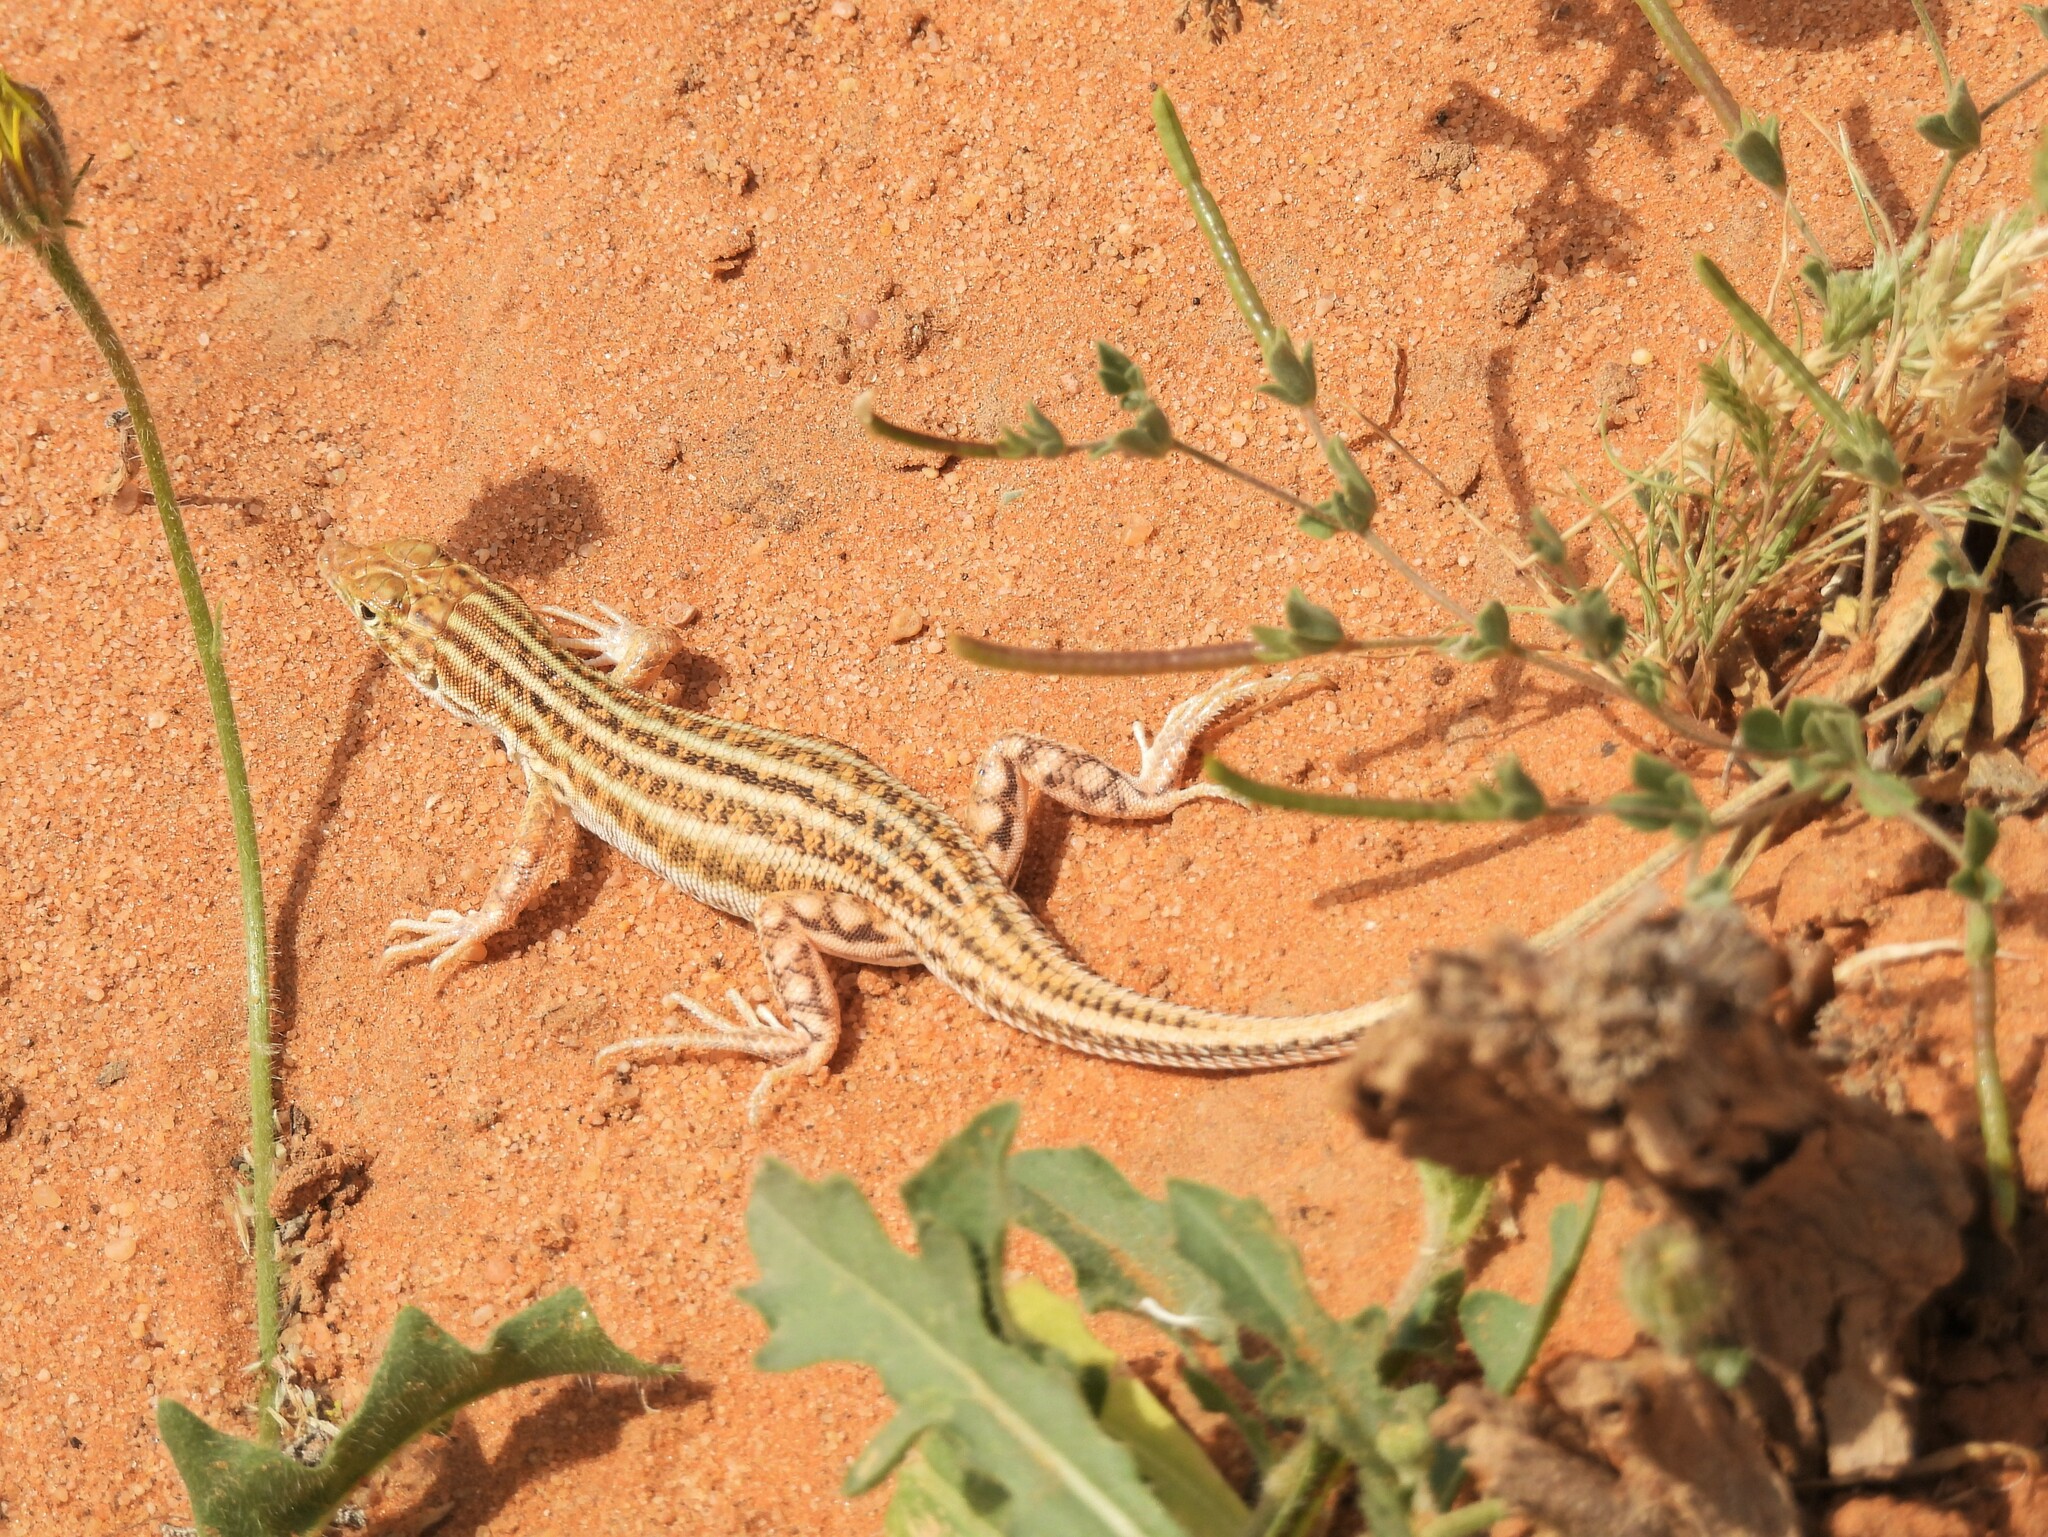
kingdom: Animalia
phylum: Chordata
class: Squamata
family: Lacertidae
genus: Acanthodactylus
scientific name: Acanthodactylus opheodurus
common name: Arnold's fringe-fingered lizard
